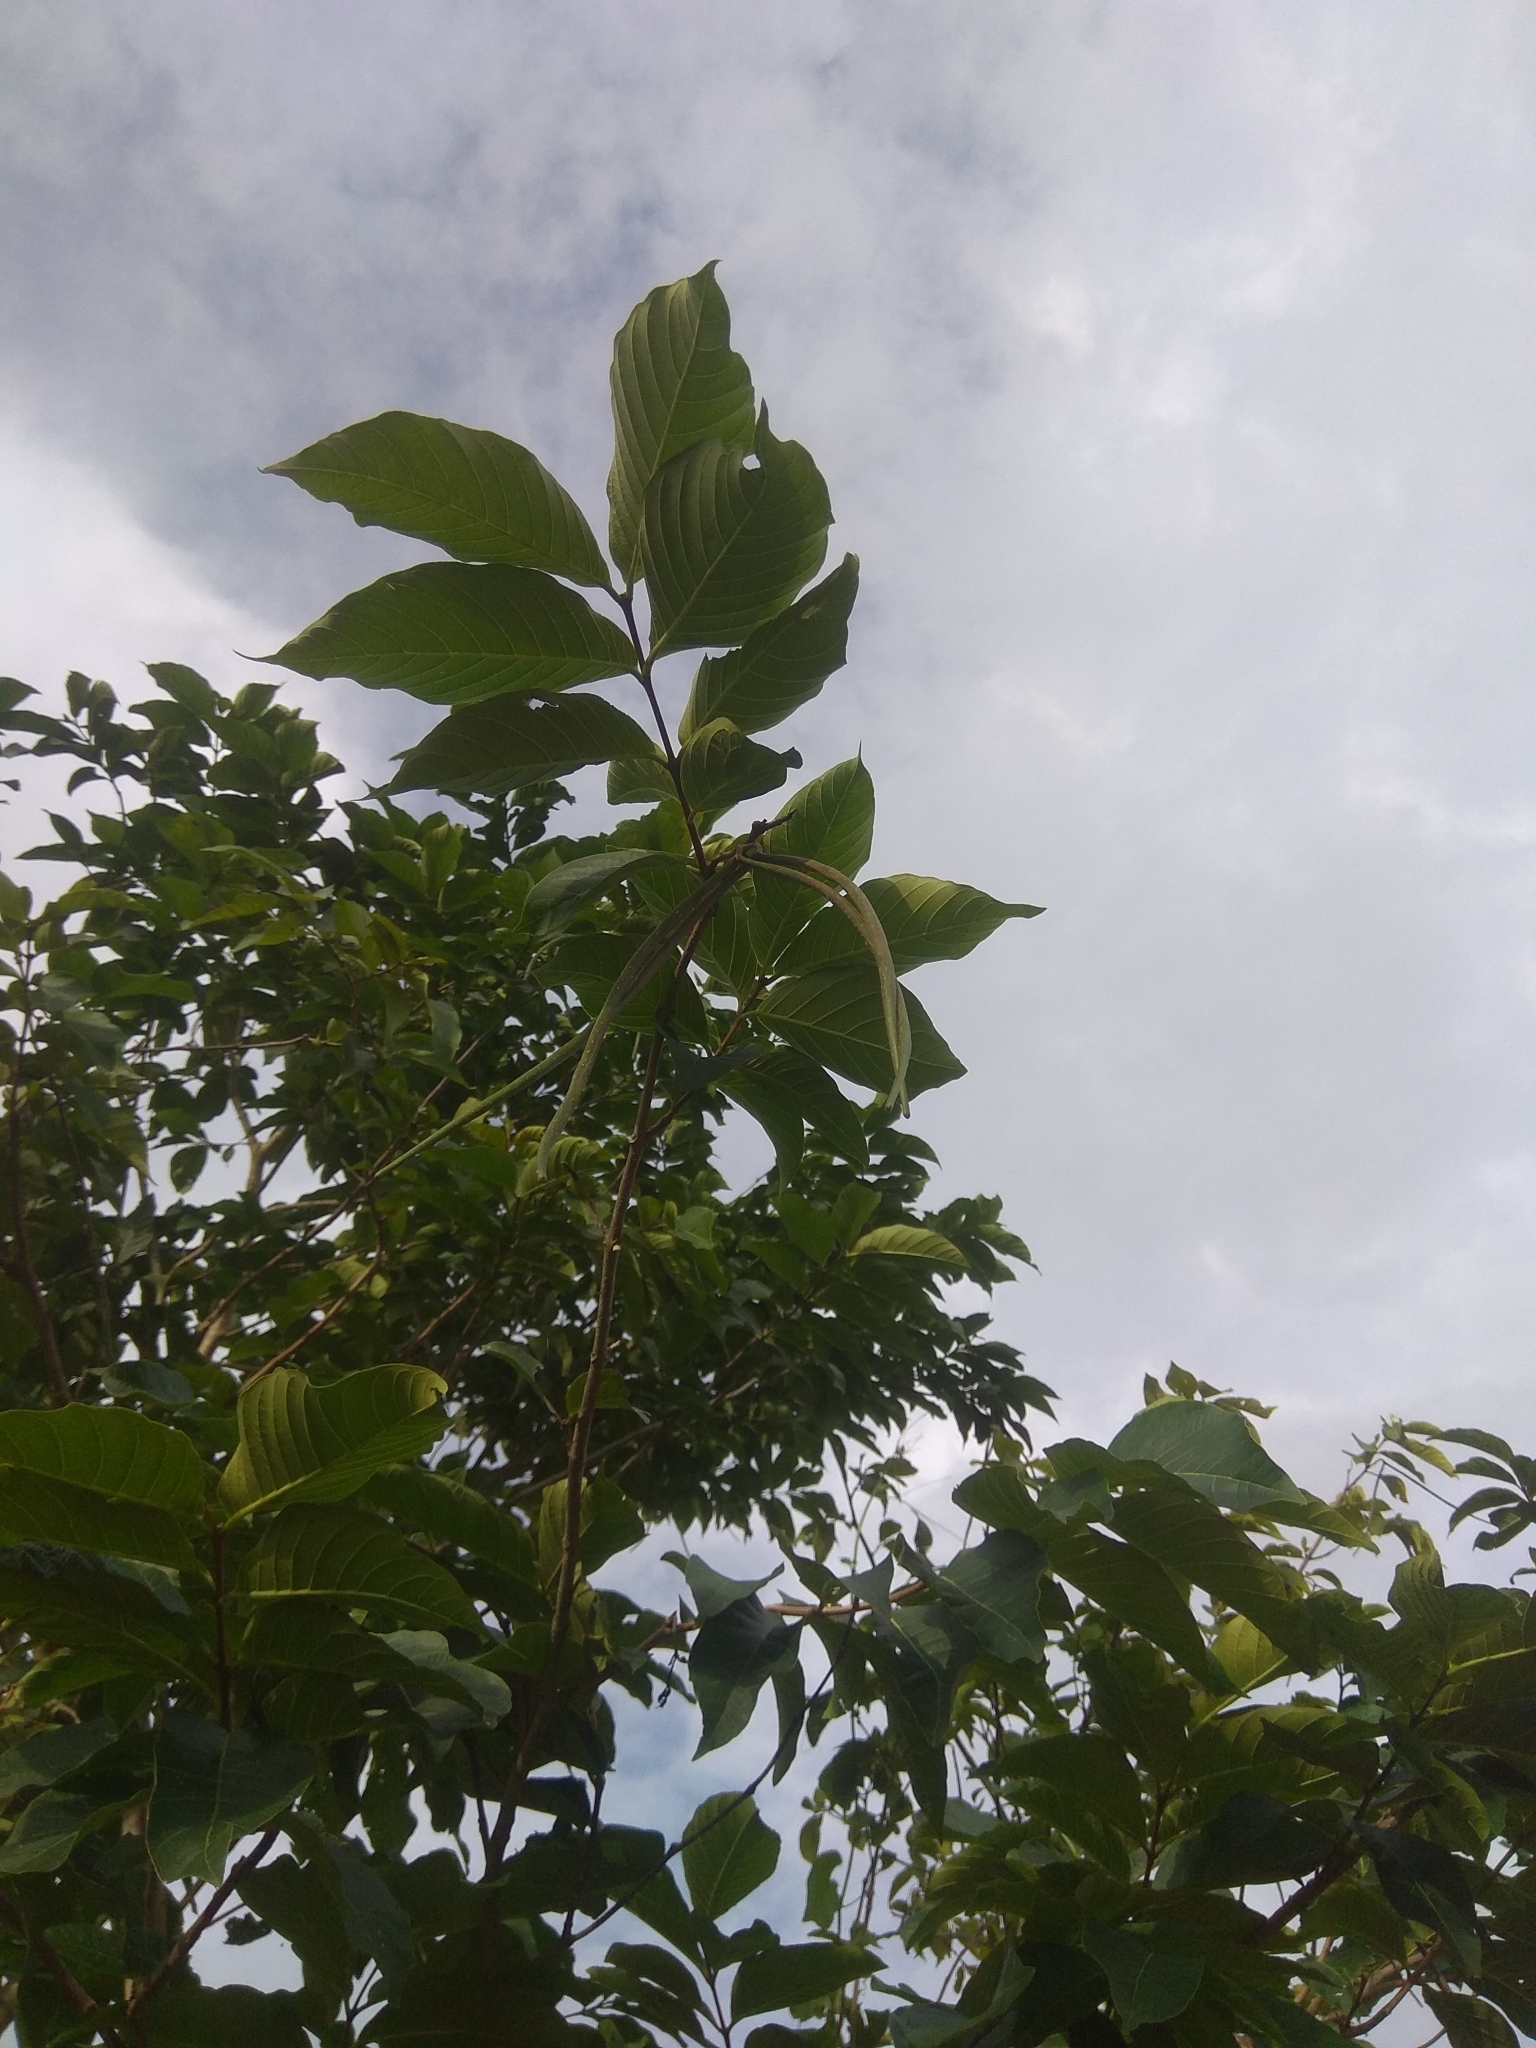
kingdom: Plantae
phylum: Tracheophyta
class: Magnoliopsida
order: Gentianales
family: Apocynaceae
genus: Holarrhena
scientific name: Holarrhena pubescens
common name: Bitter oleander
